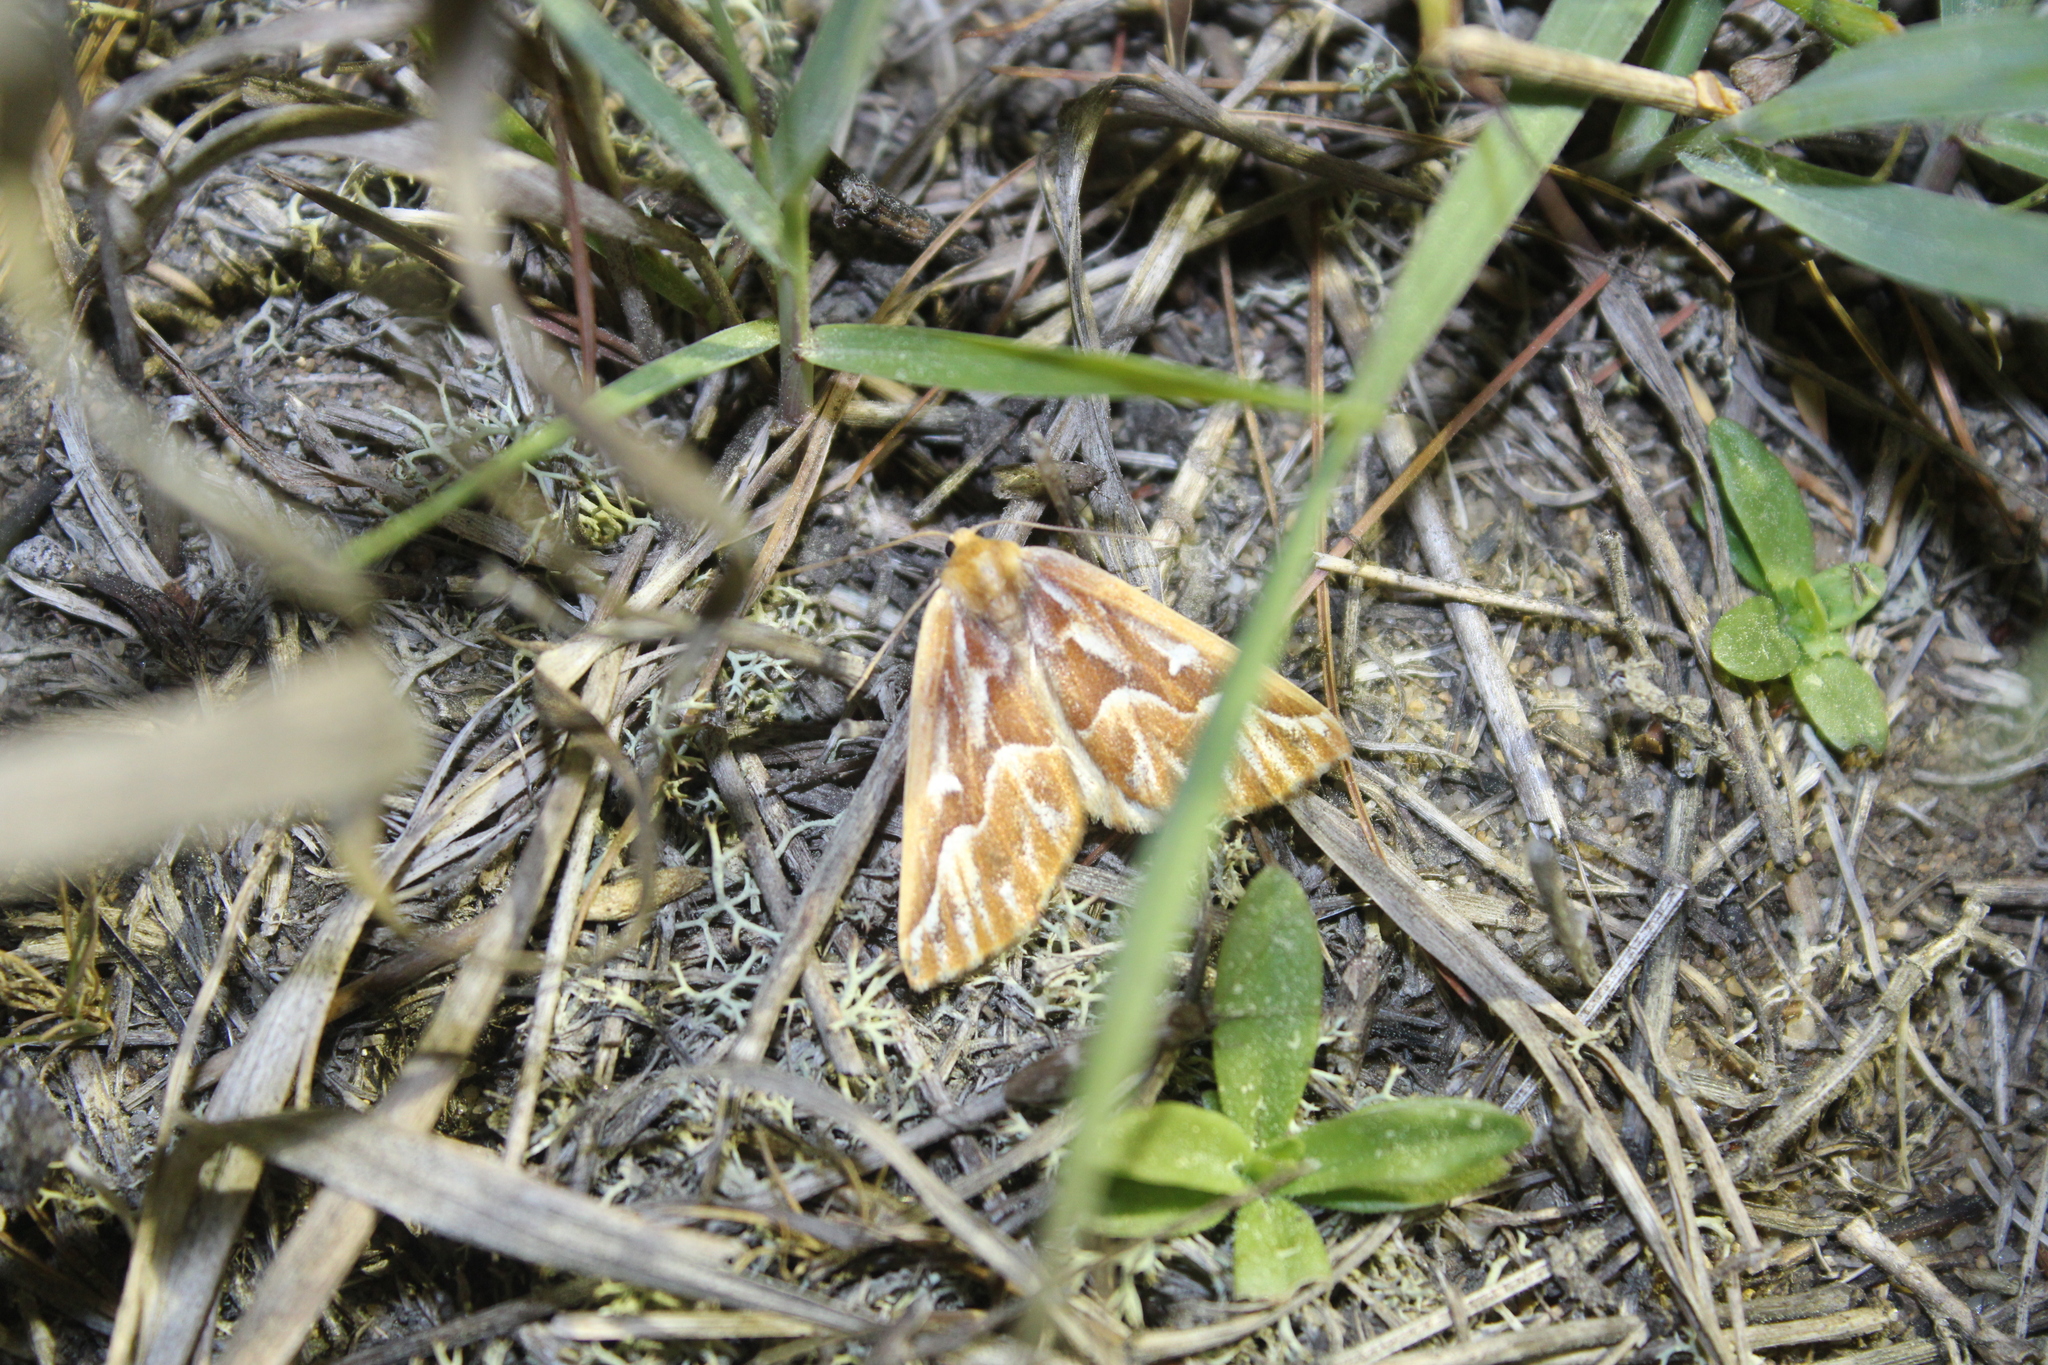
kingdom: Animalia
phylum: Arthropoda
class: Insecta
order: Lepidoptera
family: Geometridae
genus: Caripeta
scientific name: Caripeta piniata
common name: Northern pine looper moth
